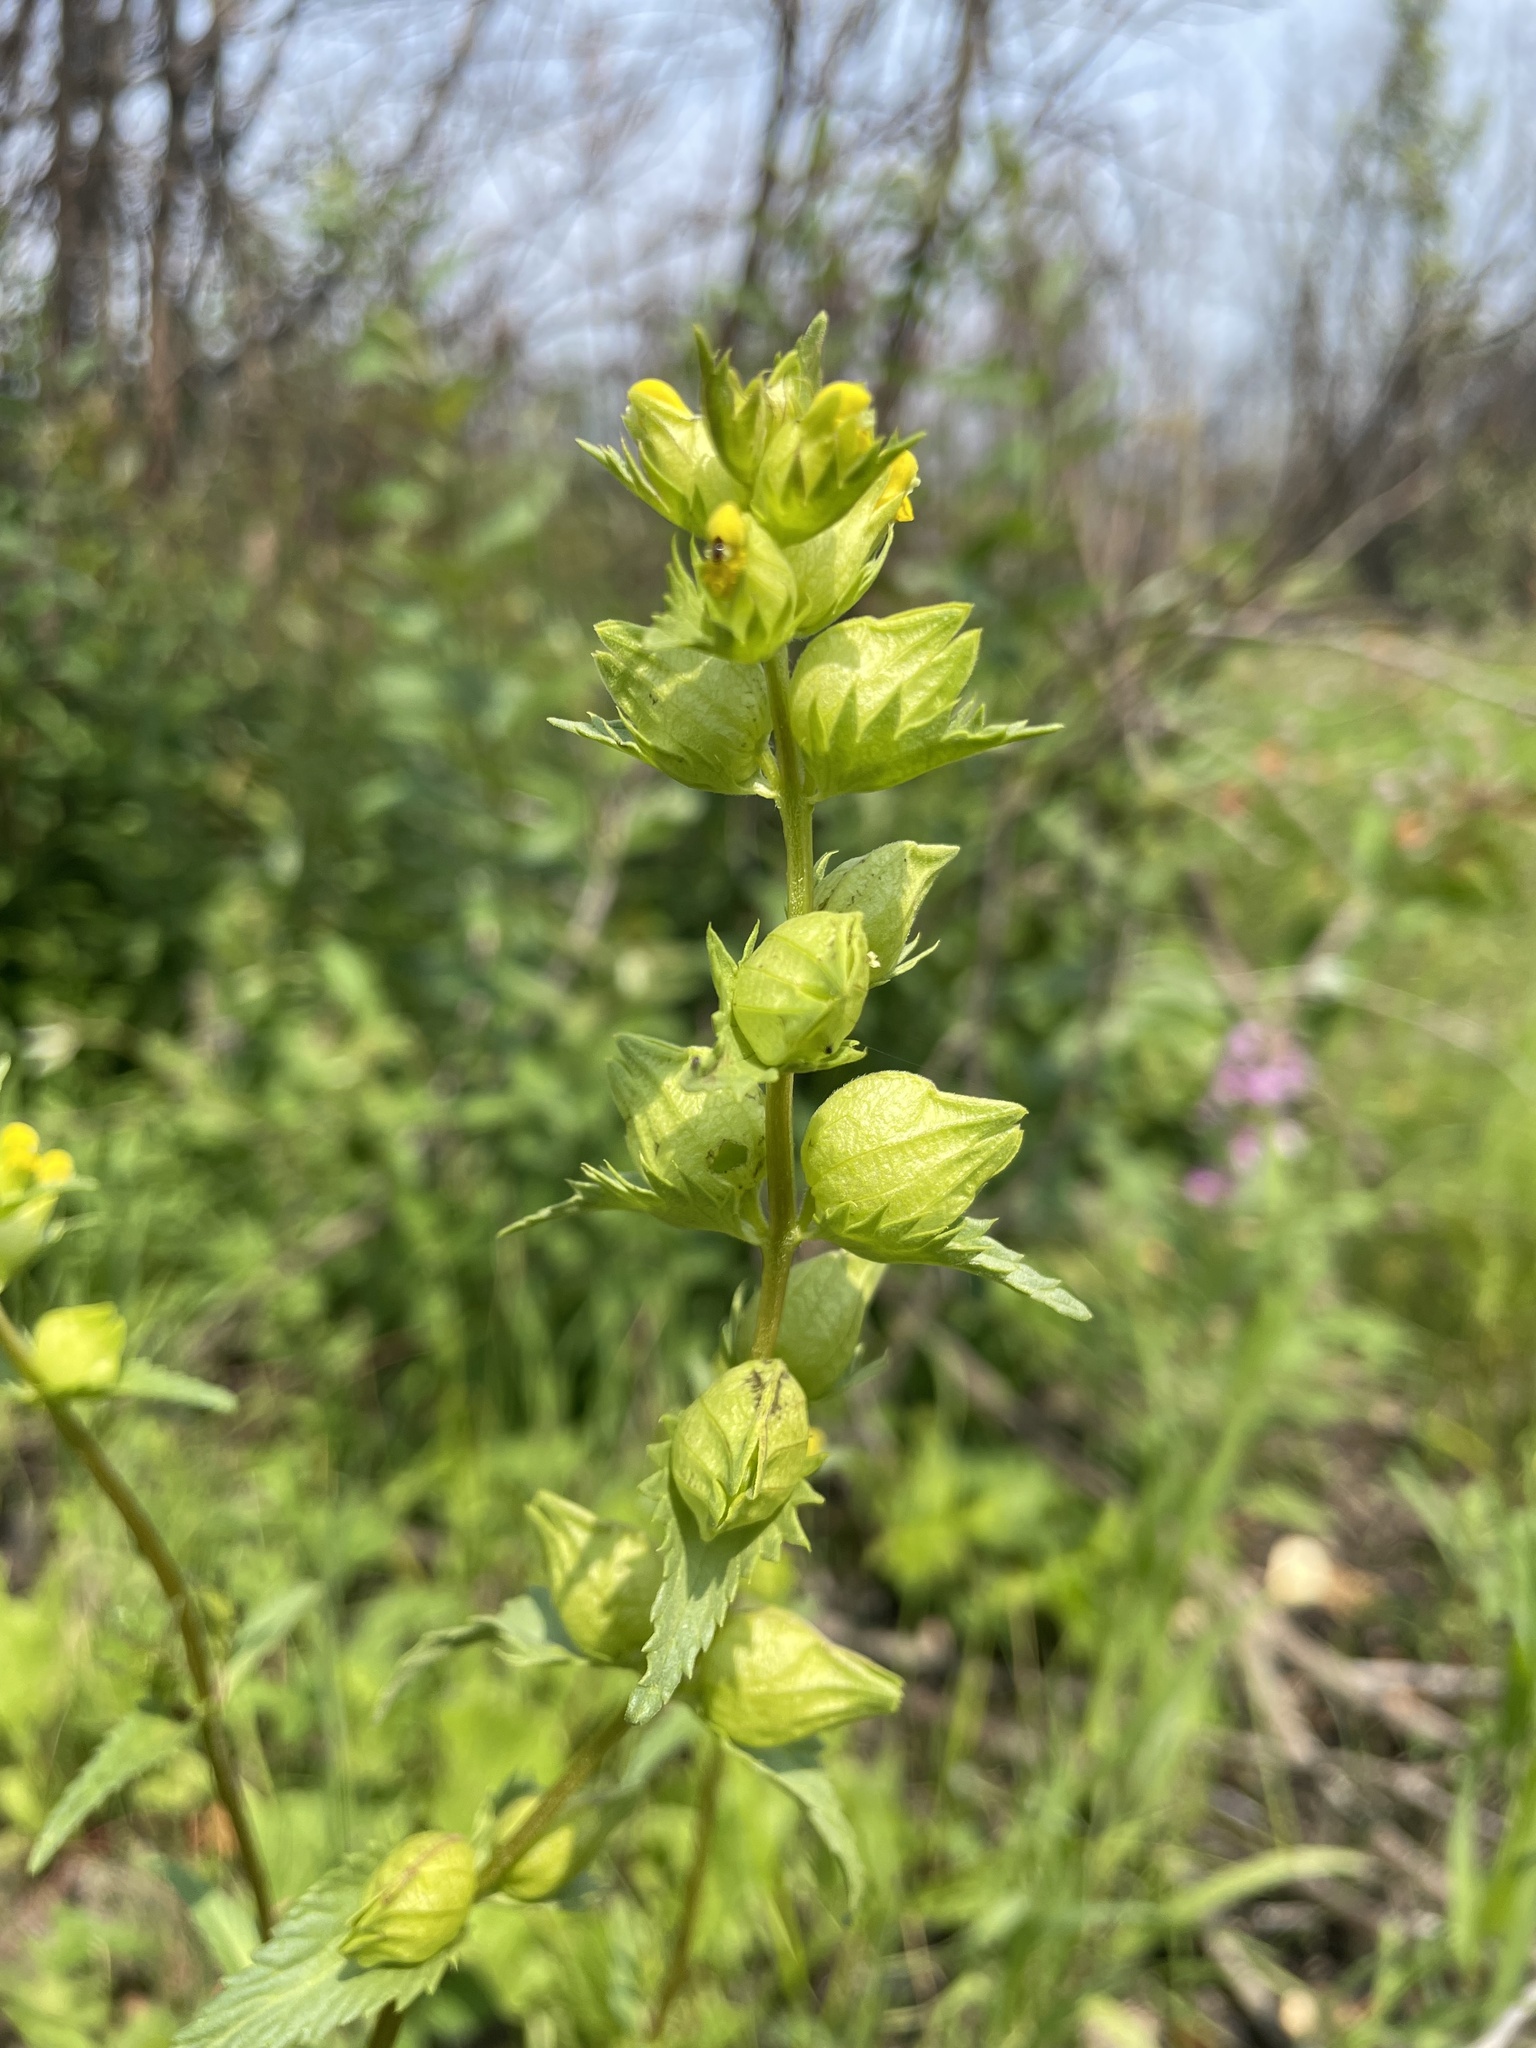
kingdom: Plantae
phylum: Tracheophyta
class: Magnoliopsida
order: Lamiales
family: Orobanchaceae
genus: Rhinanthus
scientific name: Rhinanthus groenlandicus
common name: Little yellow rattle
